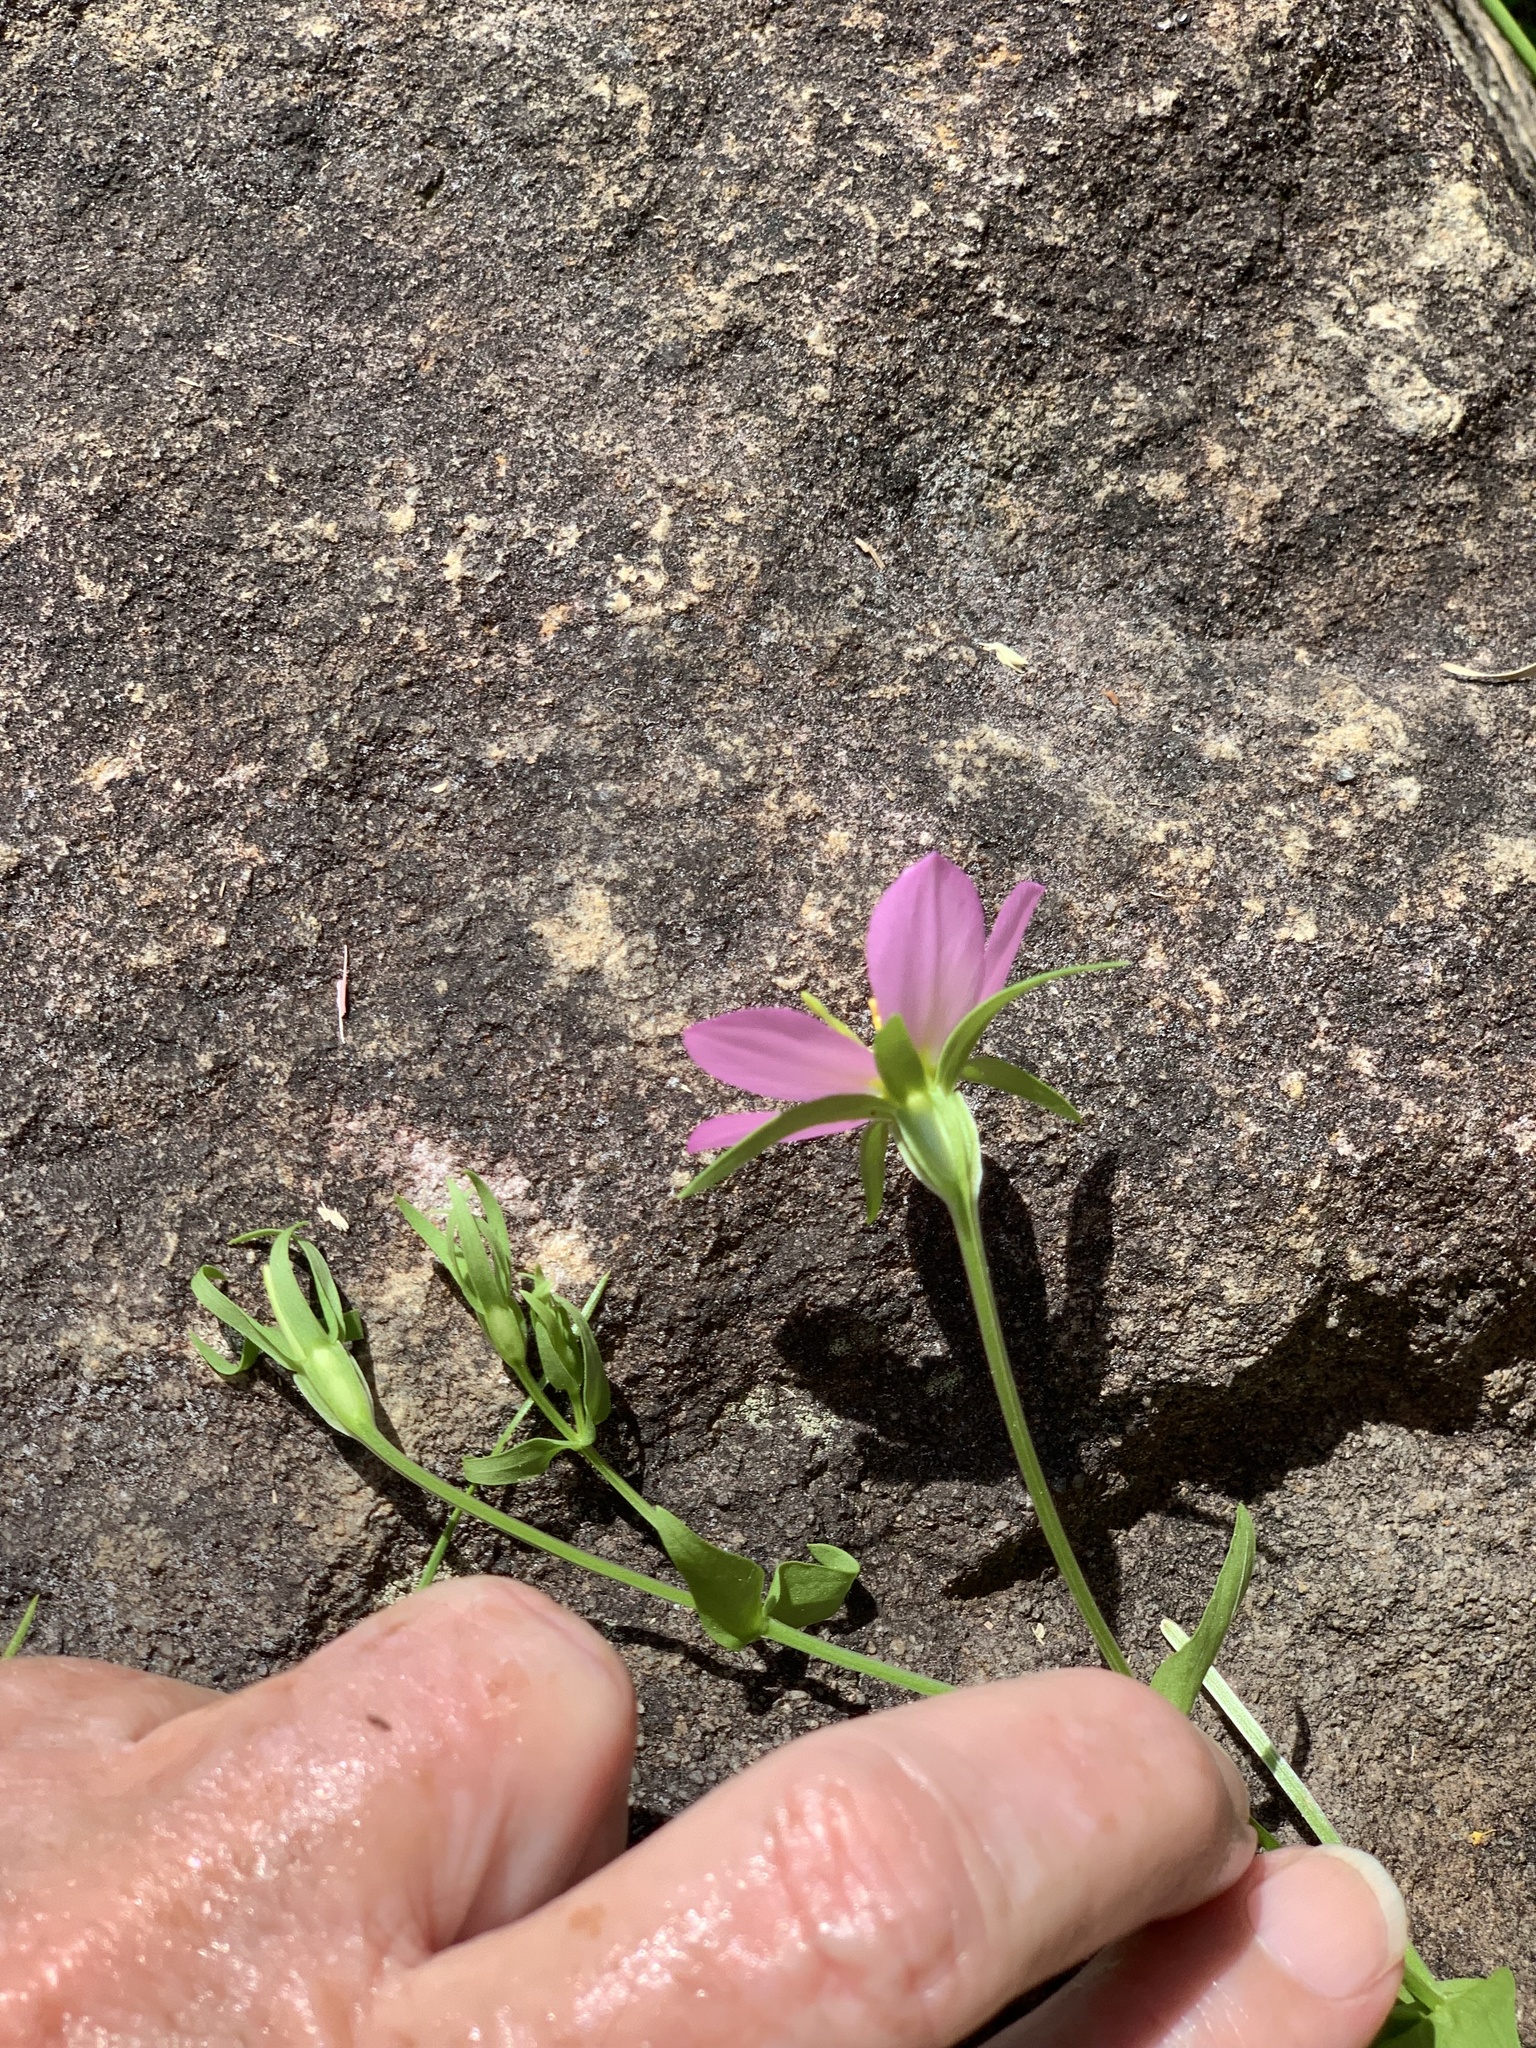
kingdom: Plantae
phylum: Tracheophyta
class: Magnoliopsida
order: Gentianales
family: Gentianaceae
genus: Sabatia
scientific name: Sabatia campestris
